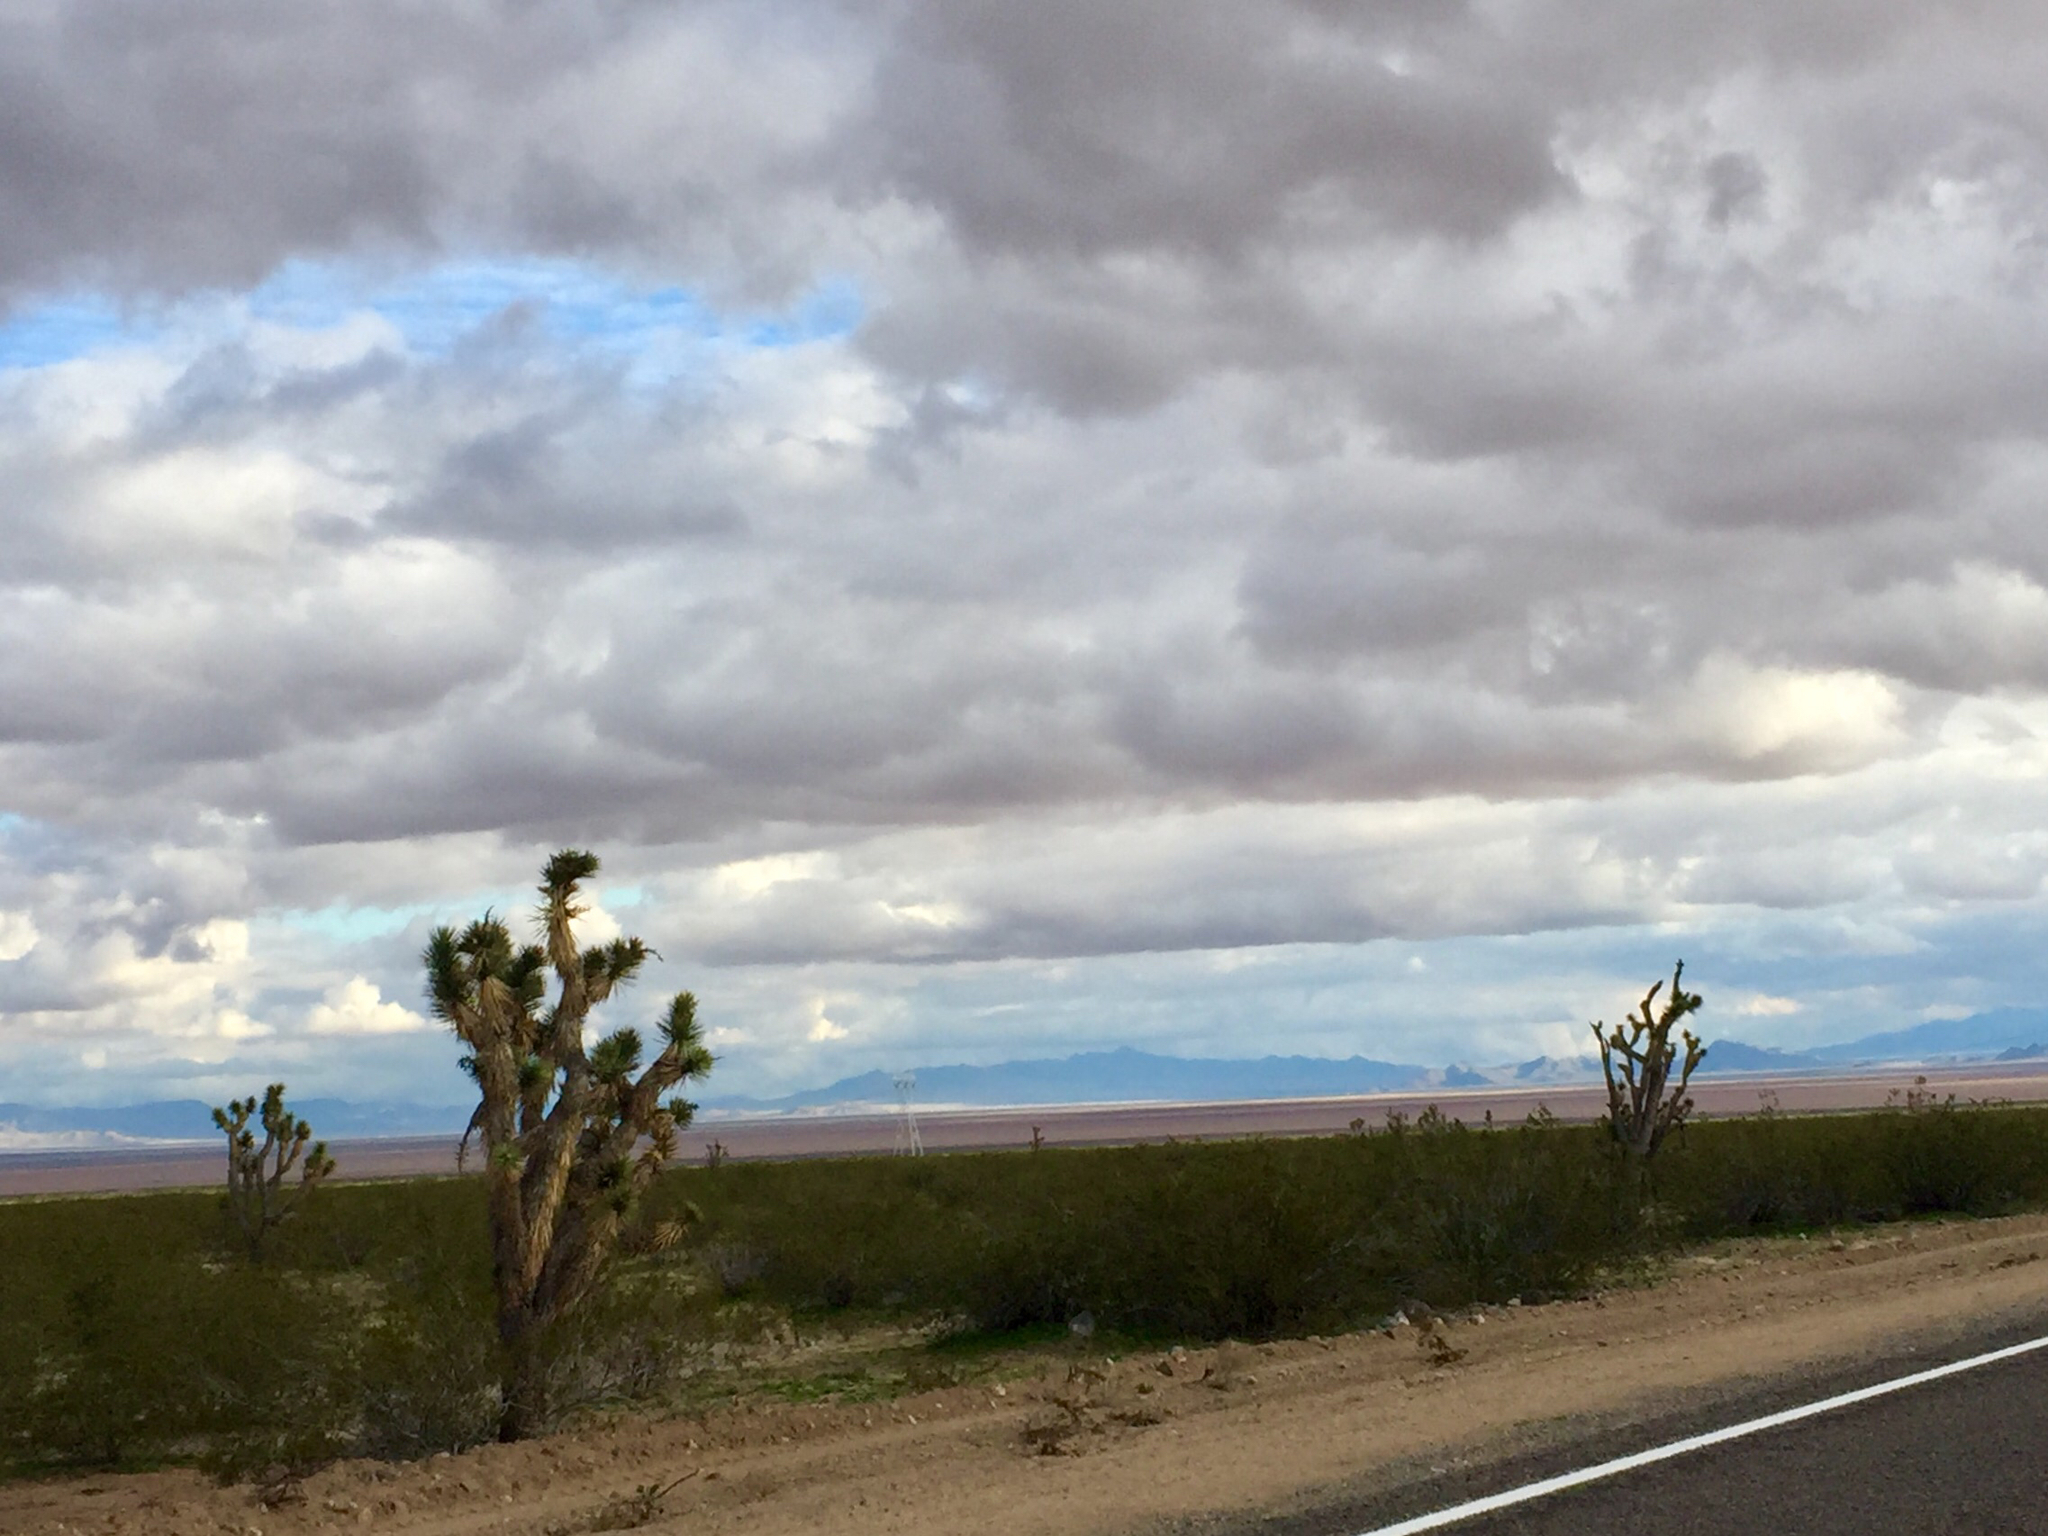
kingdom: Plantae
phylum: Tracheophyta
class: Liliopsida
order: Asparagales
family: Asparagaceae
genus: Yucca
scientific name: Yucca brevifolia
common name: Joshua tree
